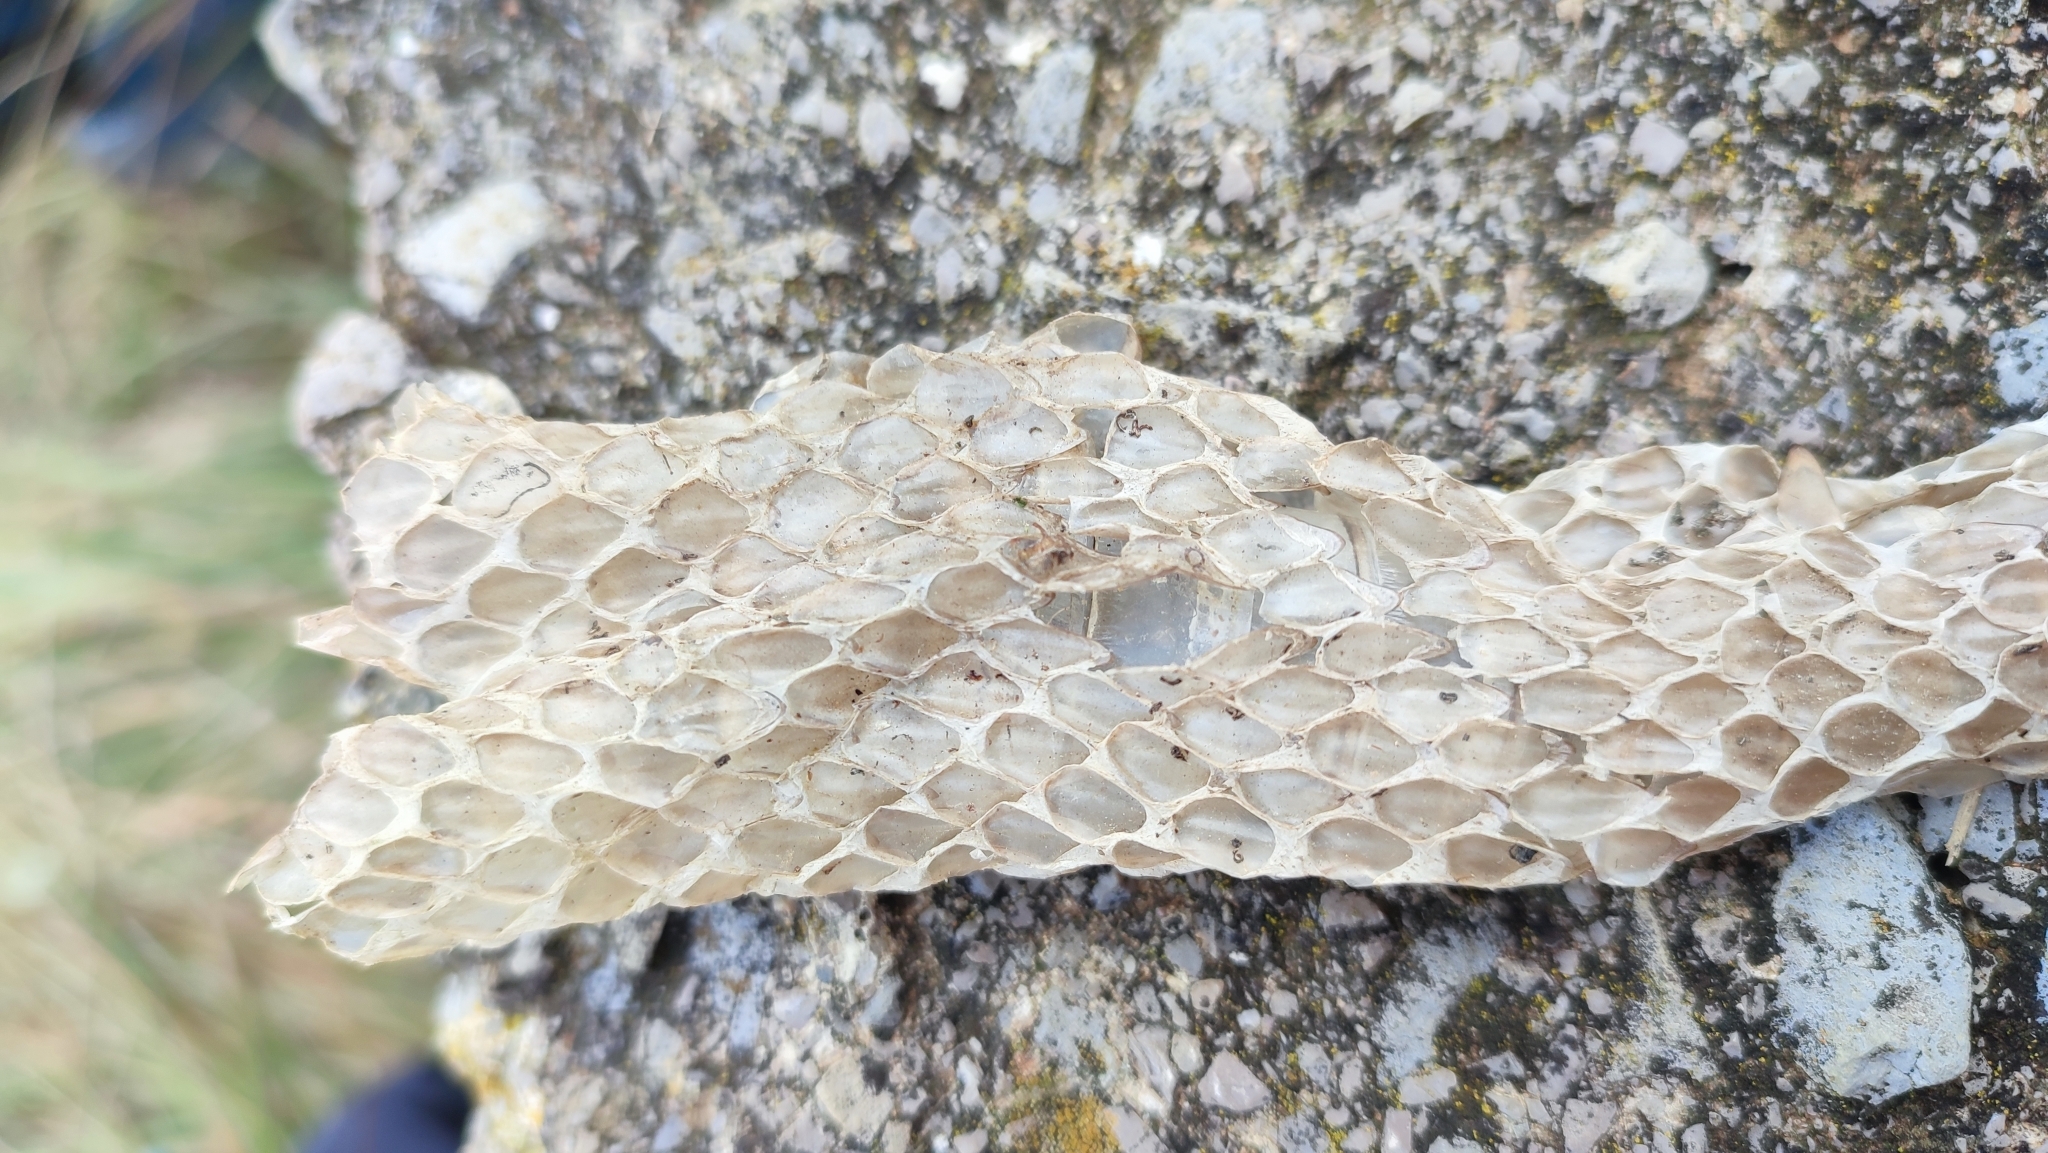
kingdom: Animalia
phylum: Chordata
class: Squamata
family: Psammophiidae
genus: Malpolon
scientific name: Malpolon monspessulanus
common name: Montpellier snake
